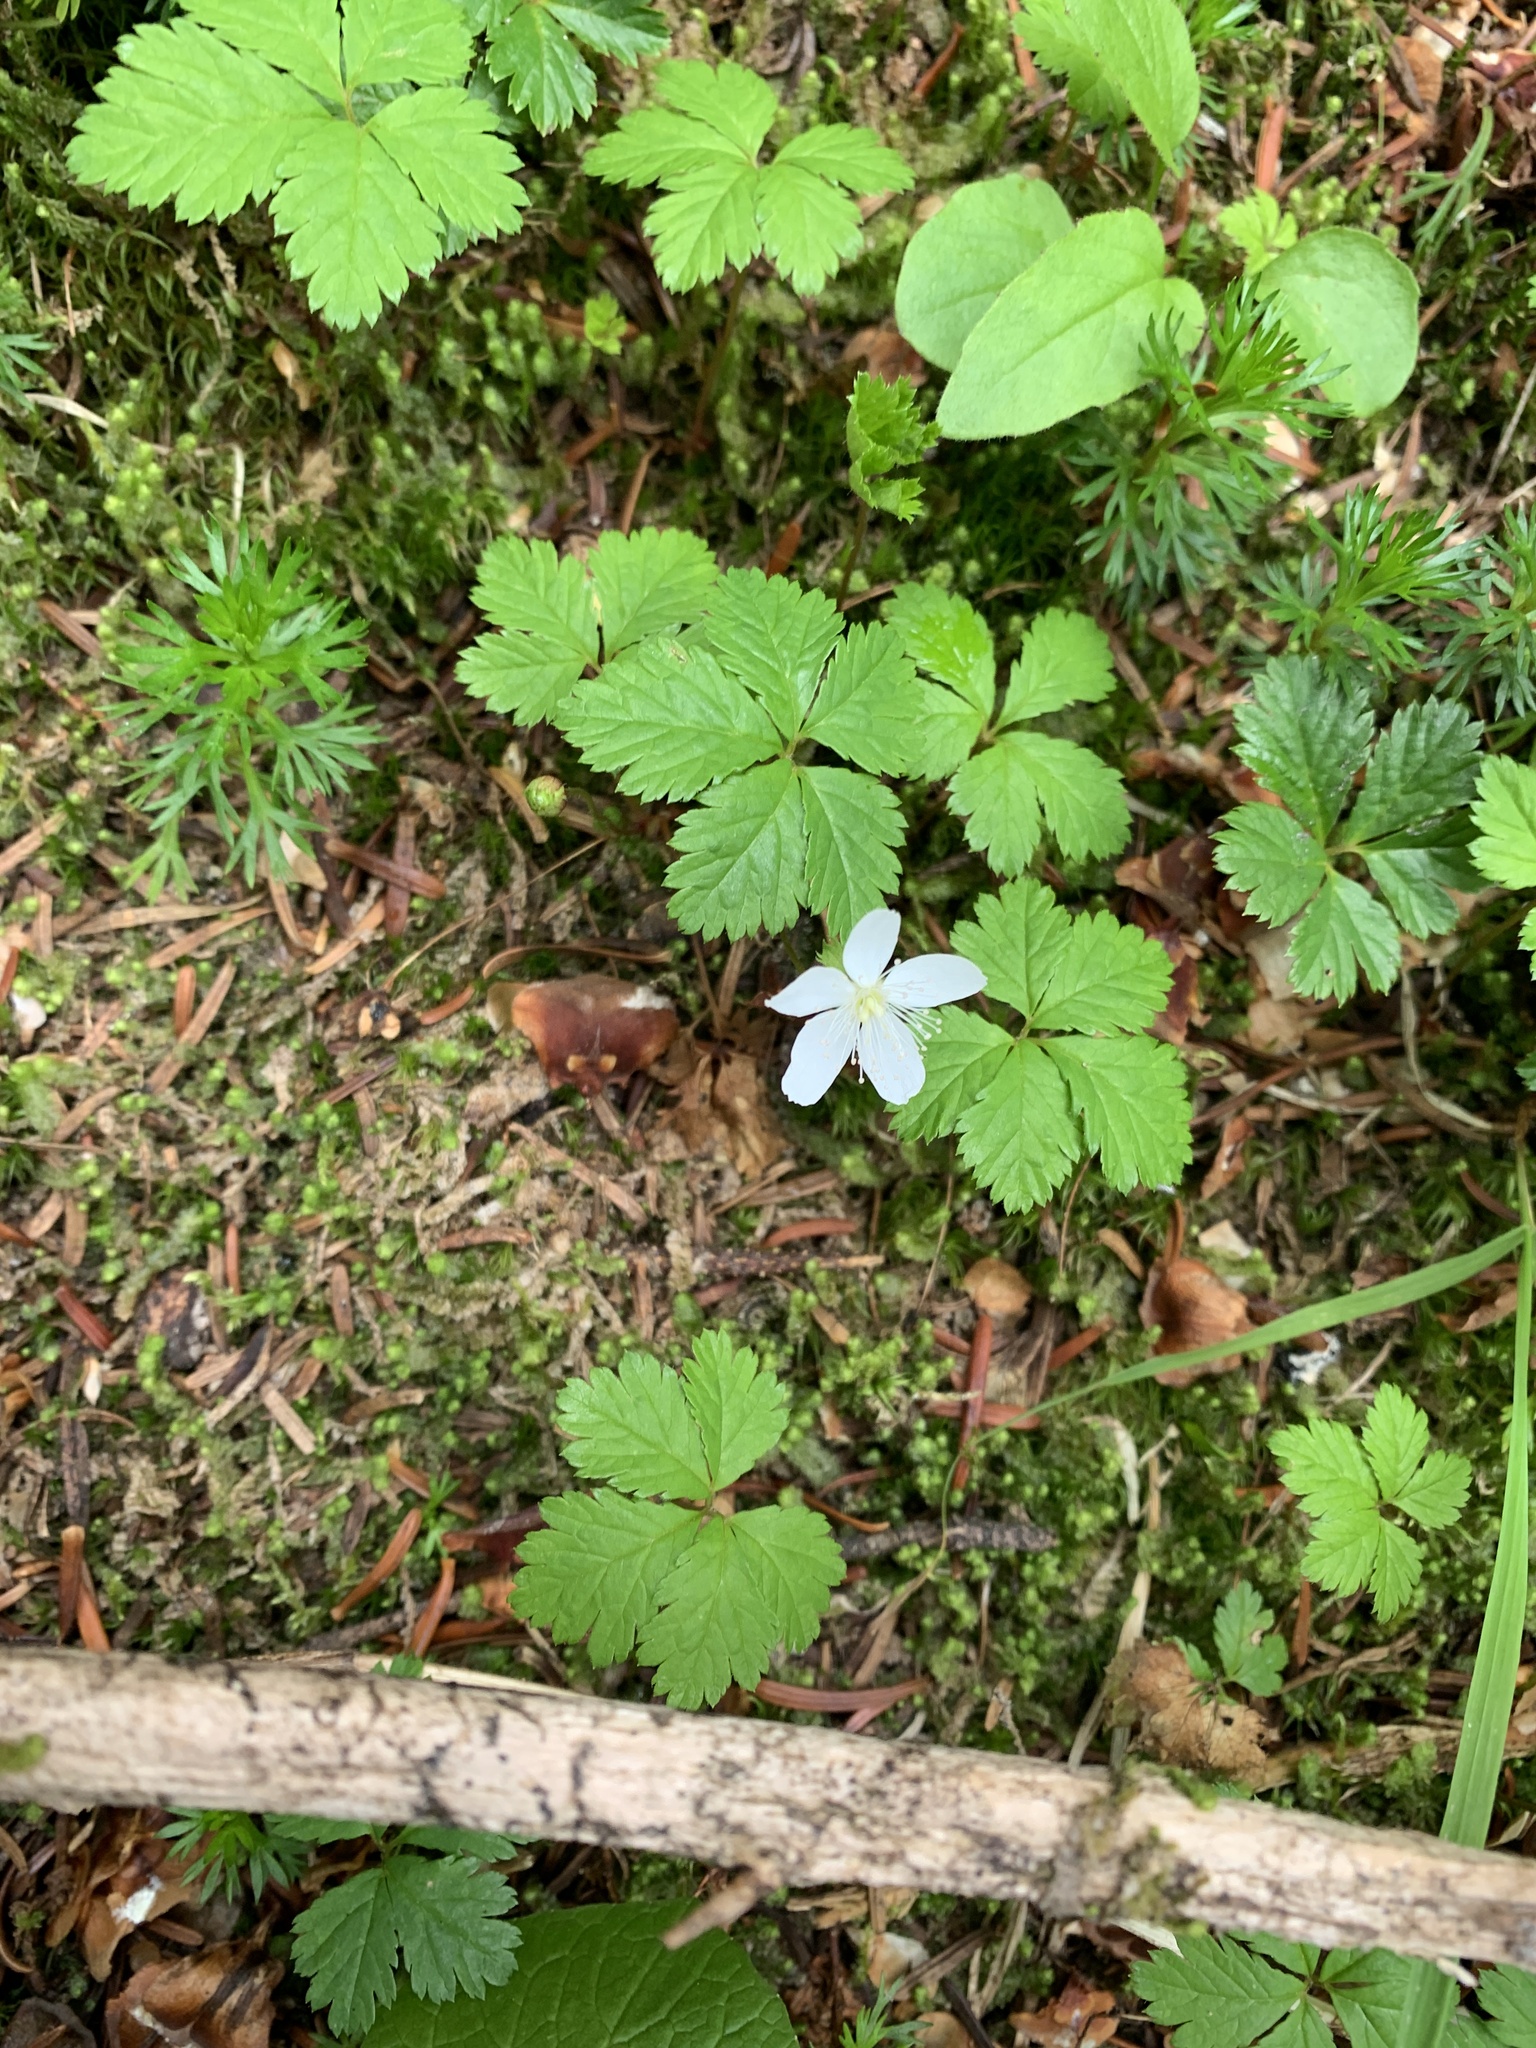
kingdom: Plantae
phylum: Tracheophyta
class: Magnoliopsida
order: Rosales
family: Rosaceae
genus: Rubus
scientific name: Rubus pedatus
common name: Creeping raspberry
